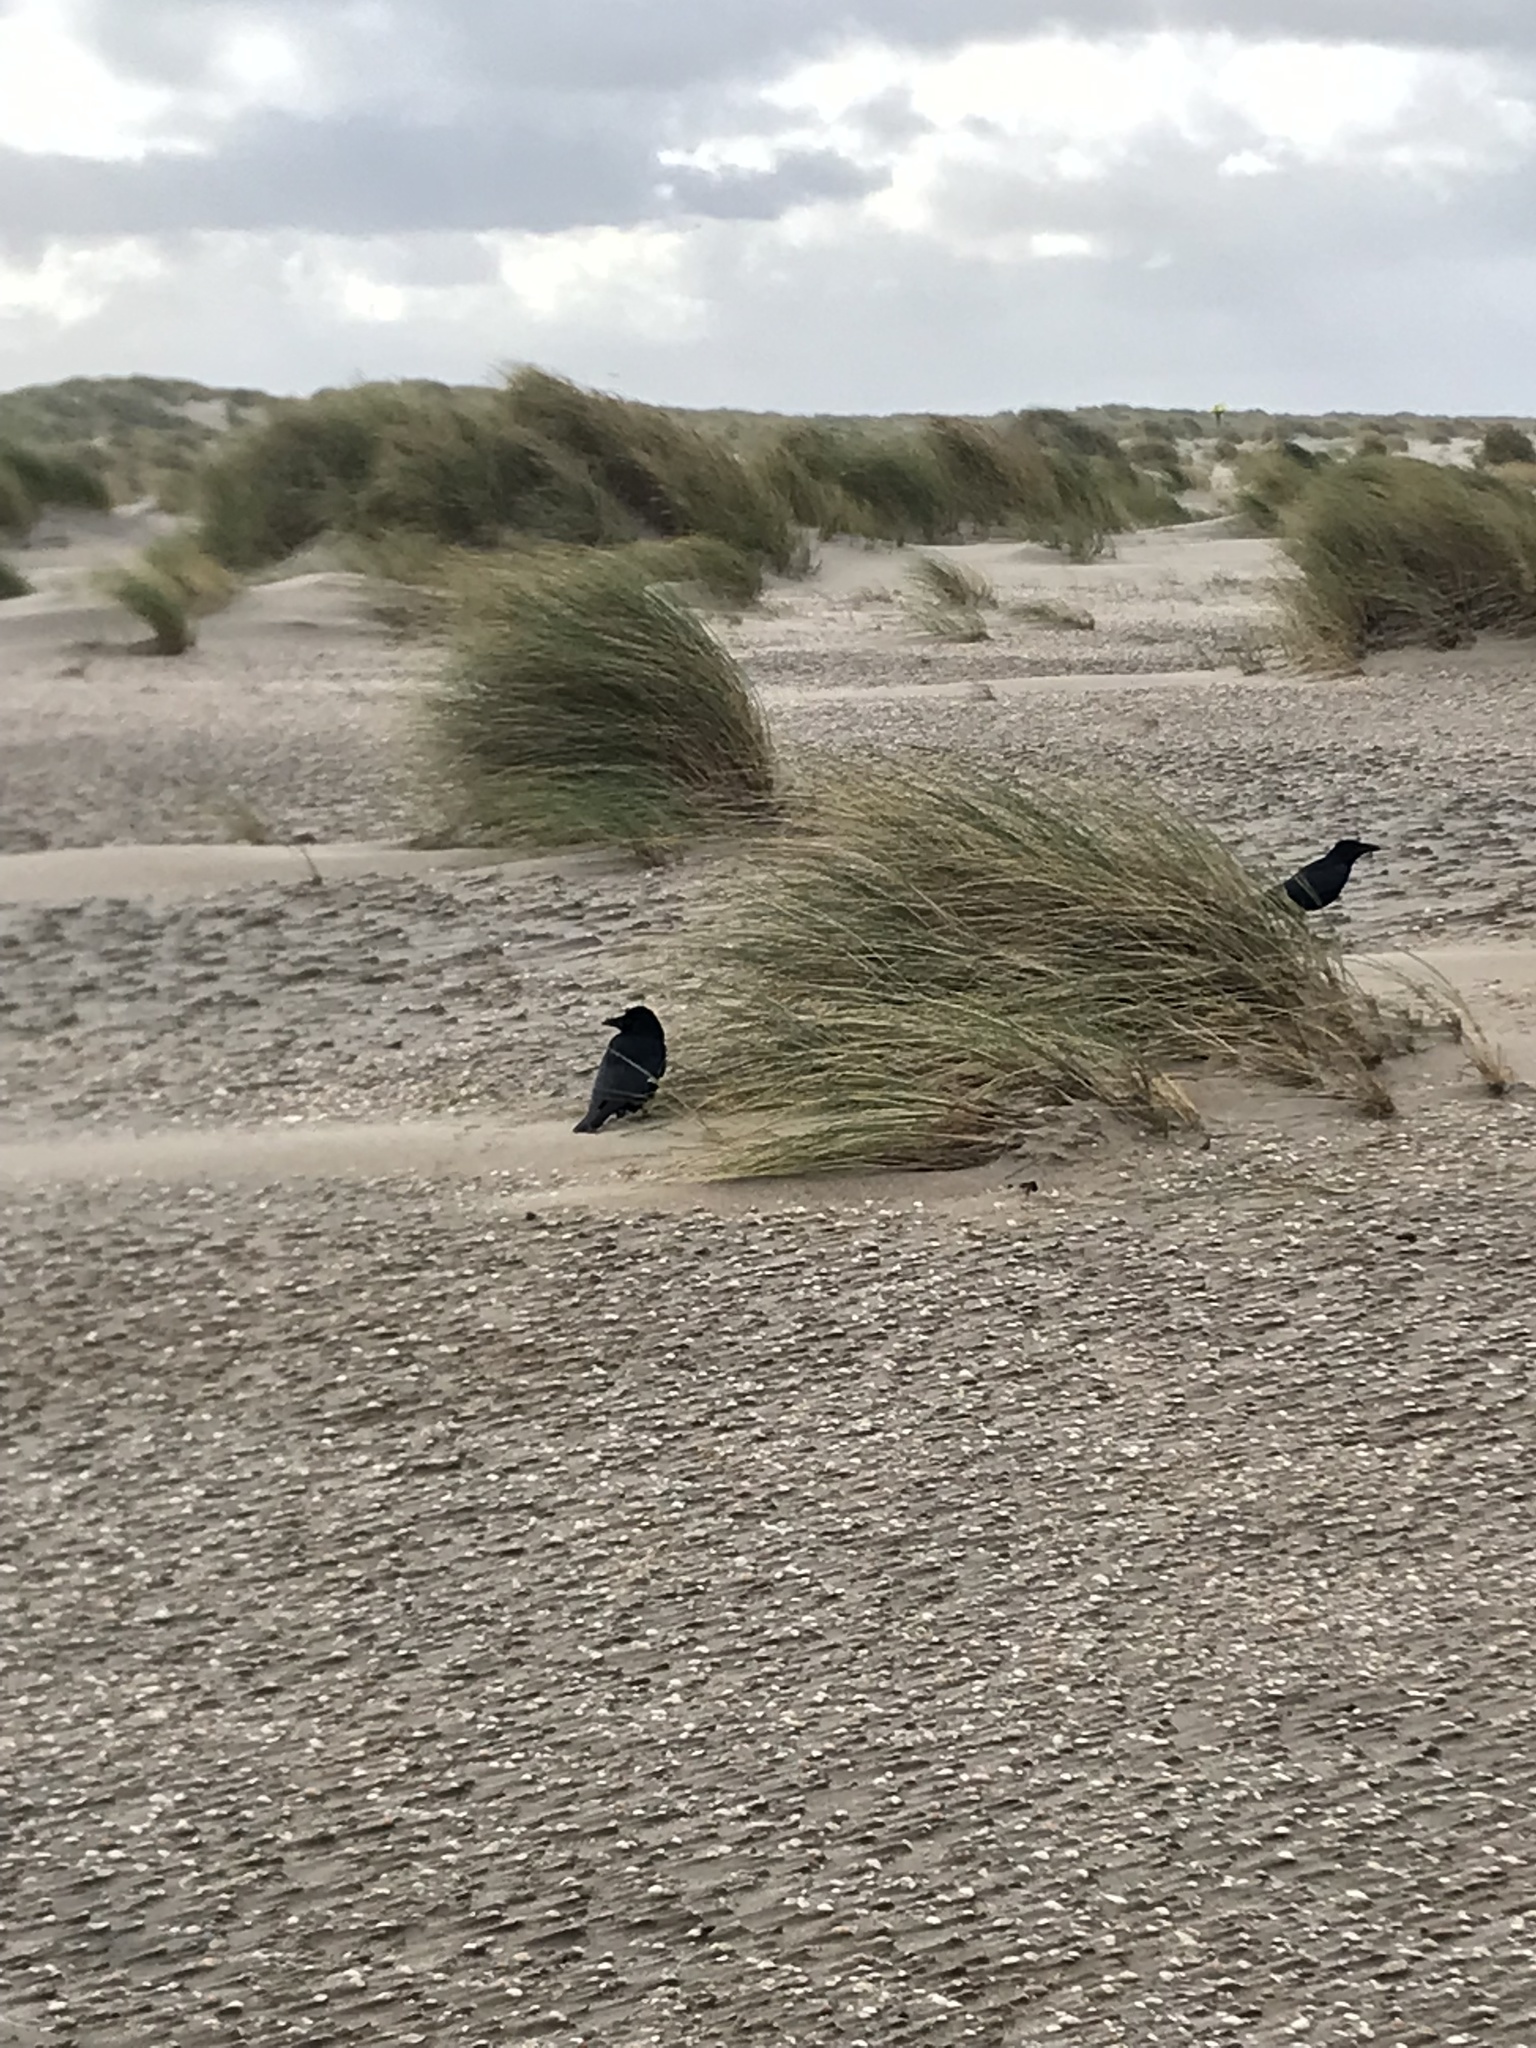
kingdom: Animalia
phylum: Chordata
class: Aves
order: Passeriformes
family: Corvidae
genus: Corvus
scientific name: Corvus corone
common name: Carrion crow
